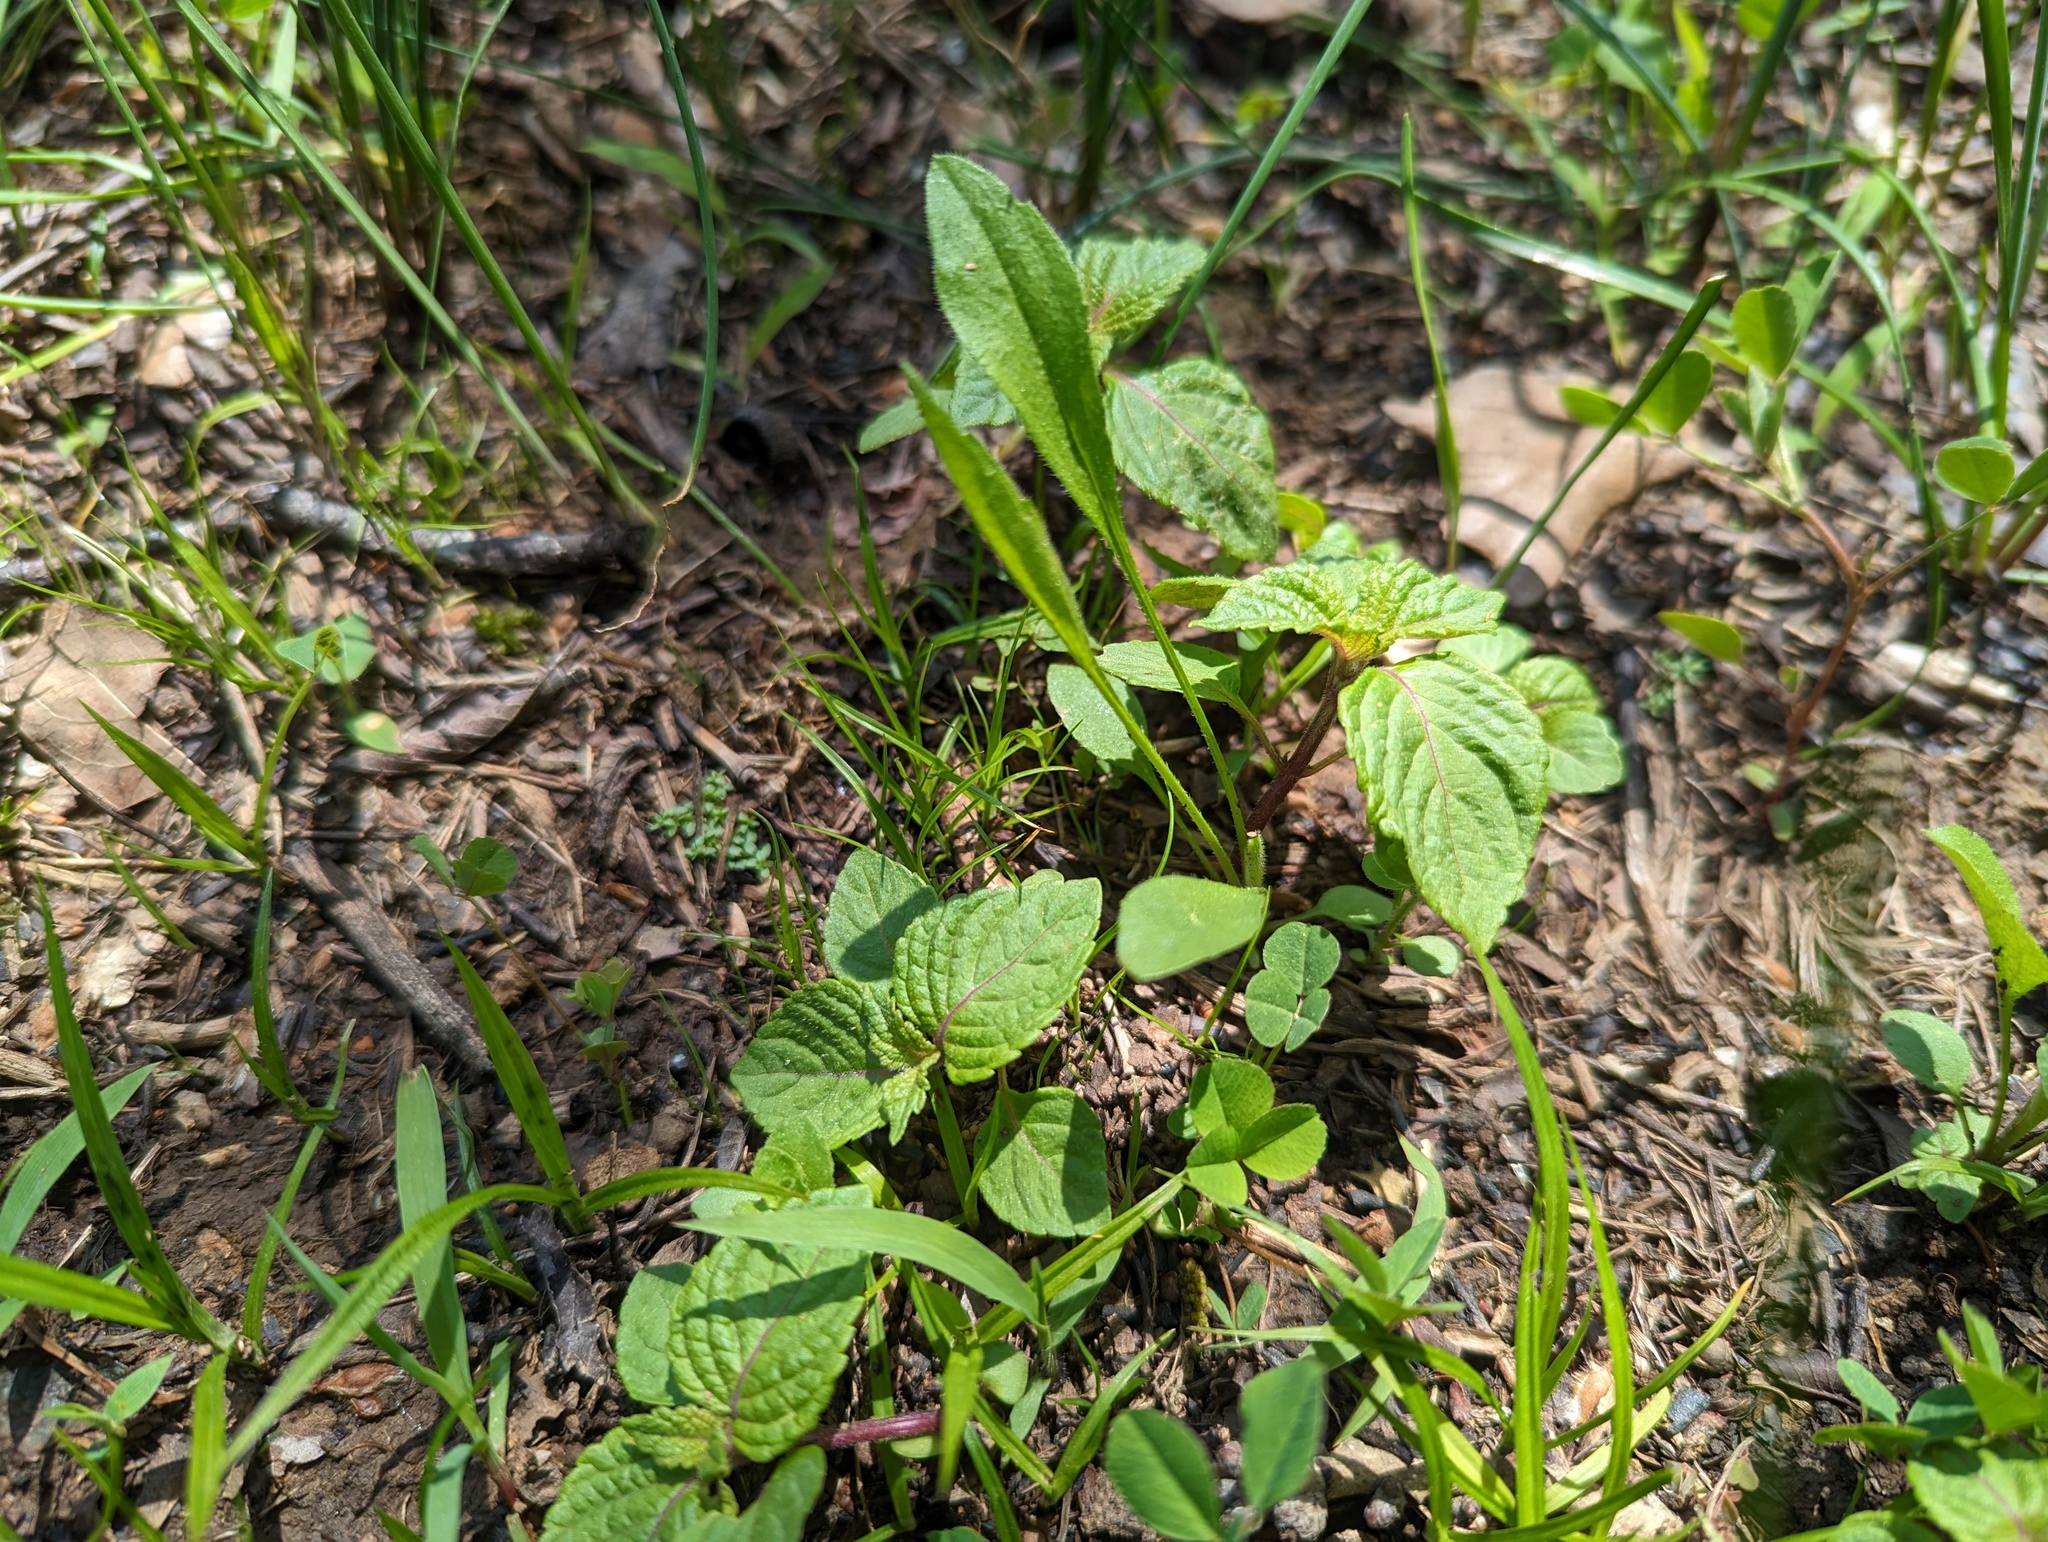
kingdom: Plantae
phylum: Tracheophyta
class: Magnoliopsida
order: Lamiales
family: Lamiaceae
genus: Perilla
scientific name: Perilla frutescens
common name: Perilla
